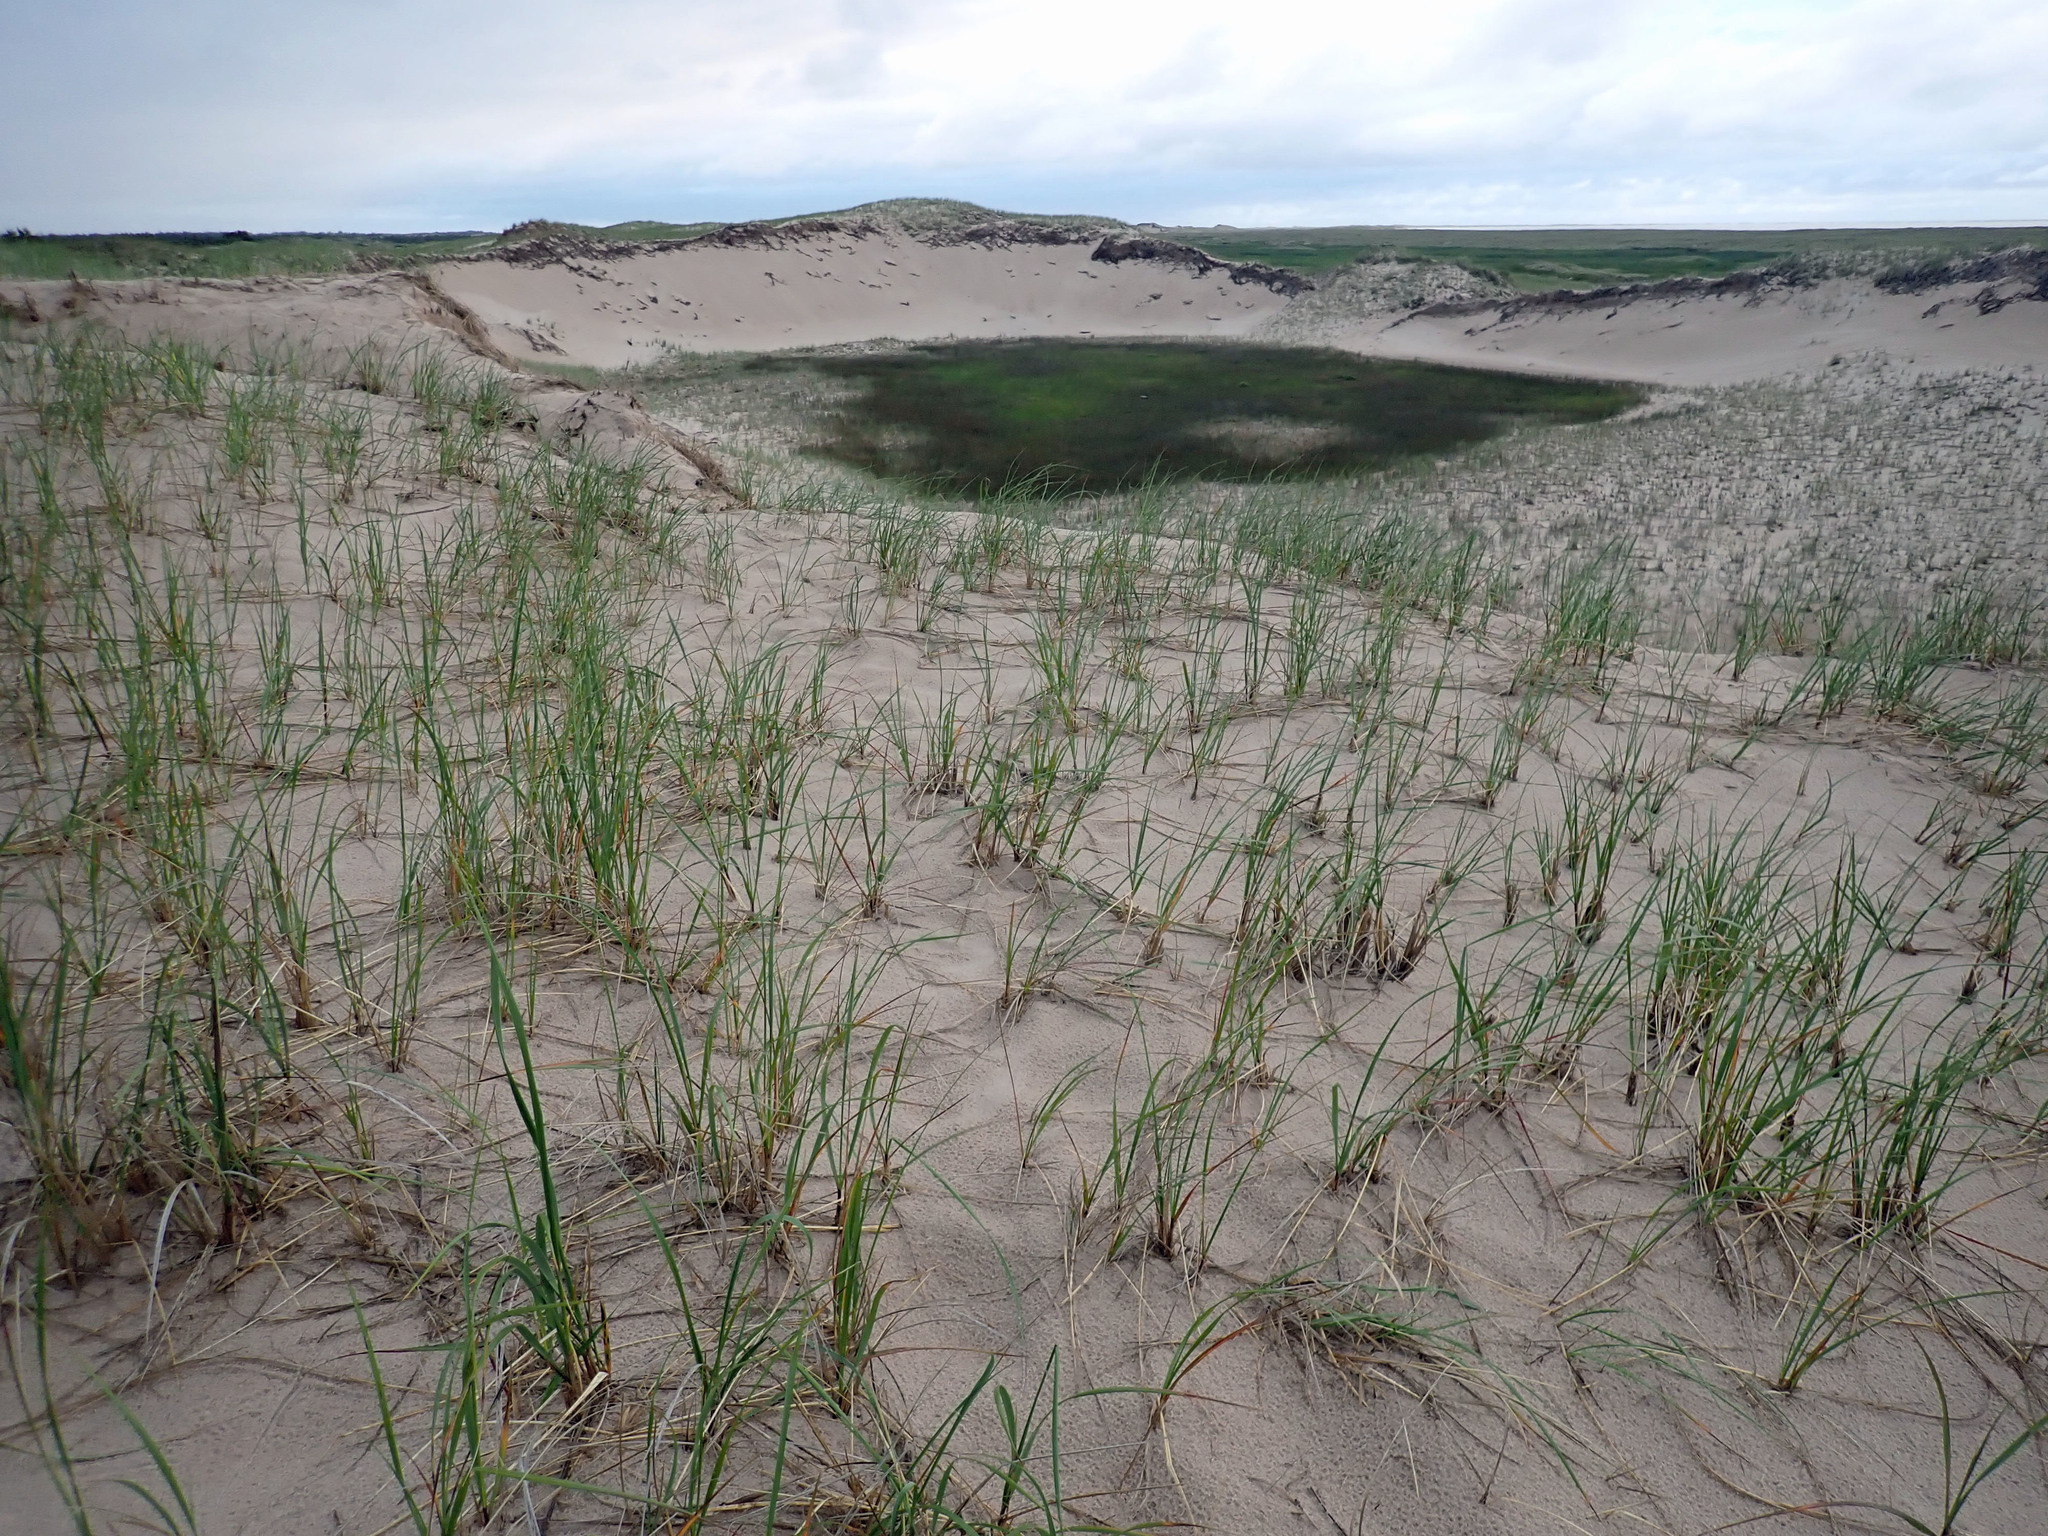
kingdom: Plantae
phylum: Tracheophyta
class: Liliopsida
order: Poales
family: Poaceae
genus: Calamagrostis
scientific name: Calamagrostis breviligulata
